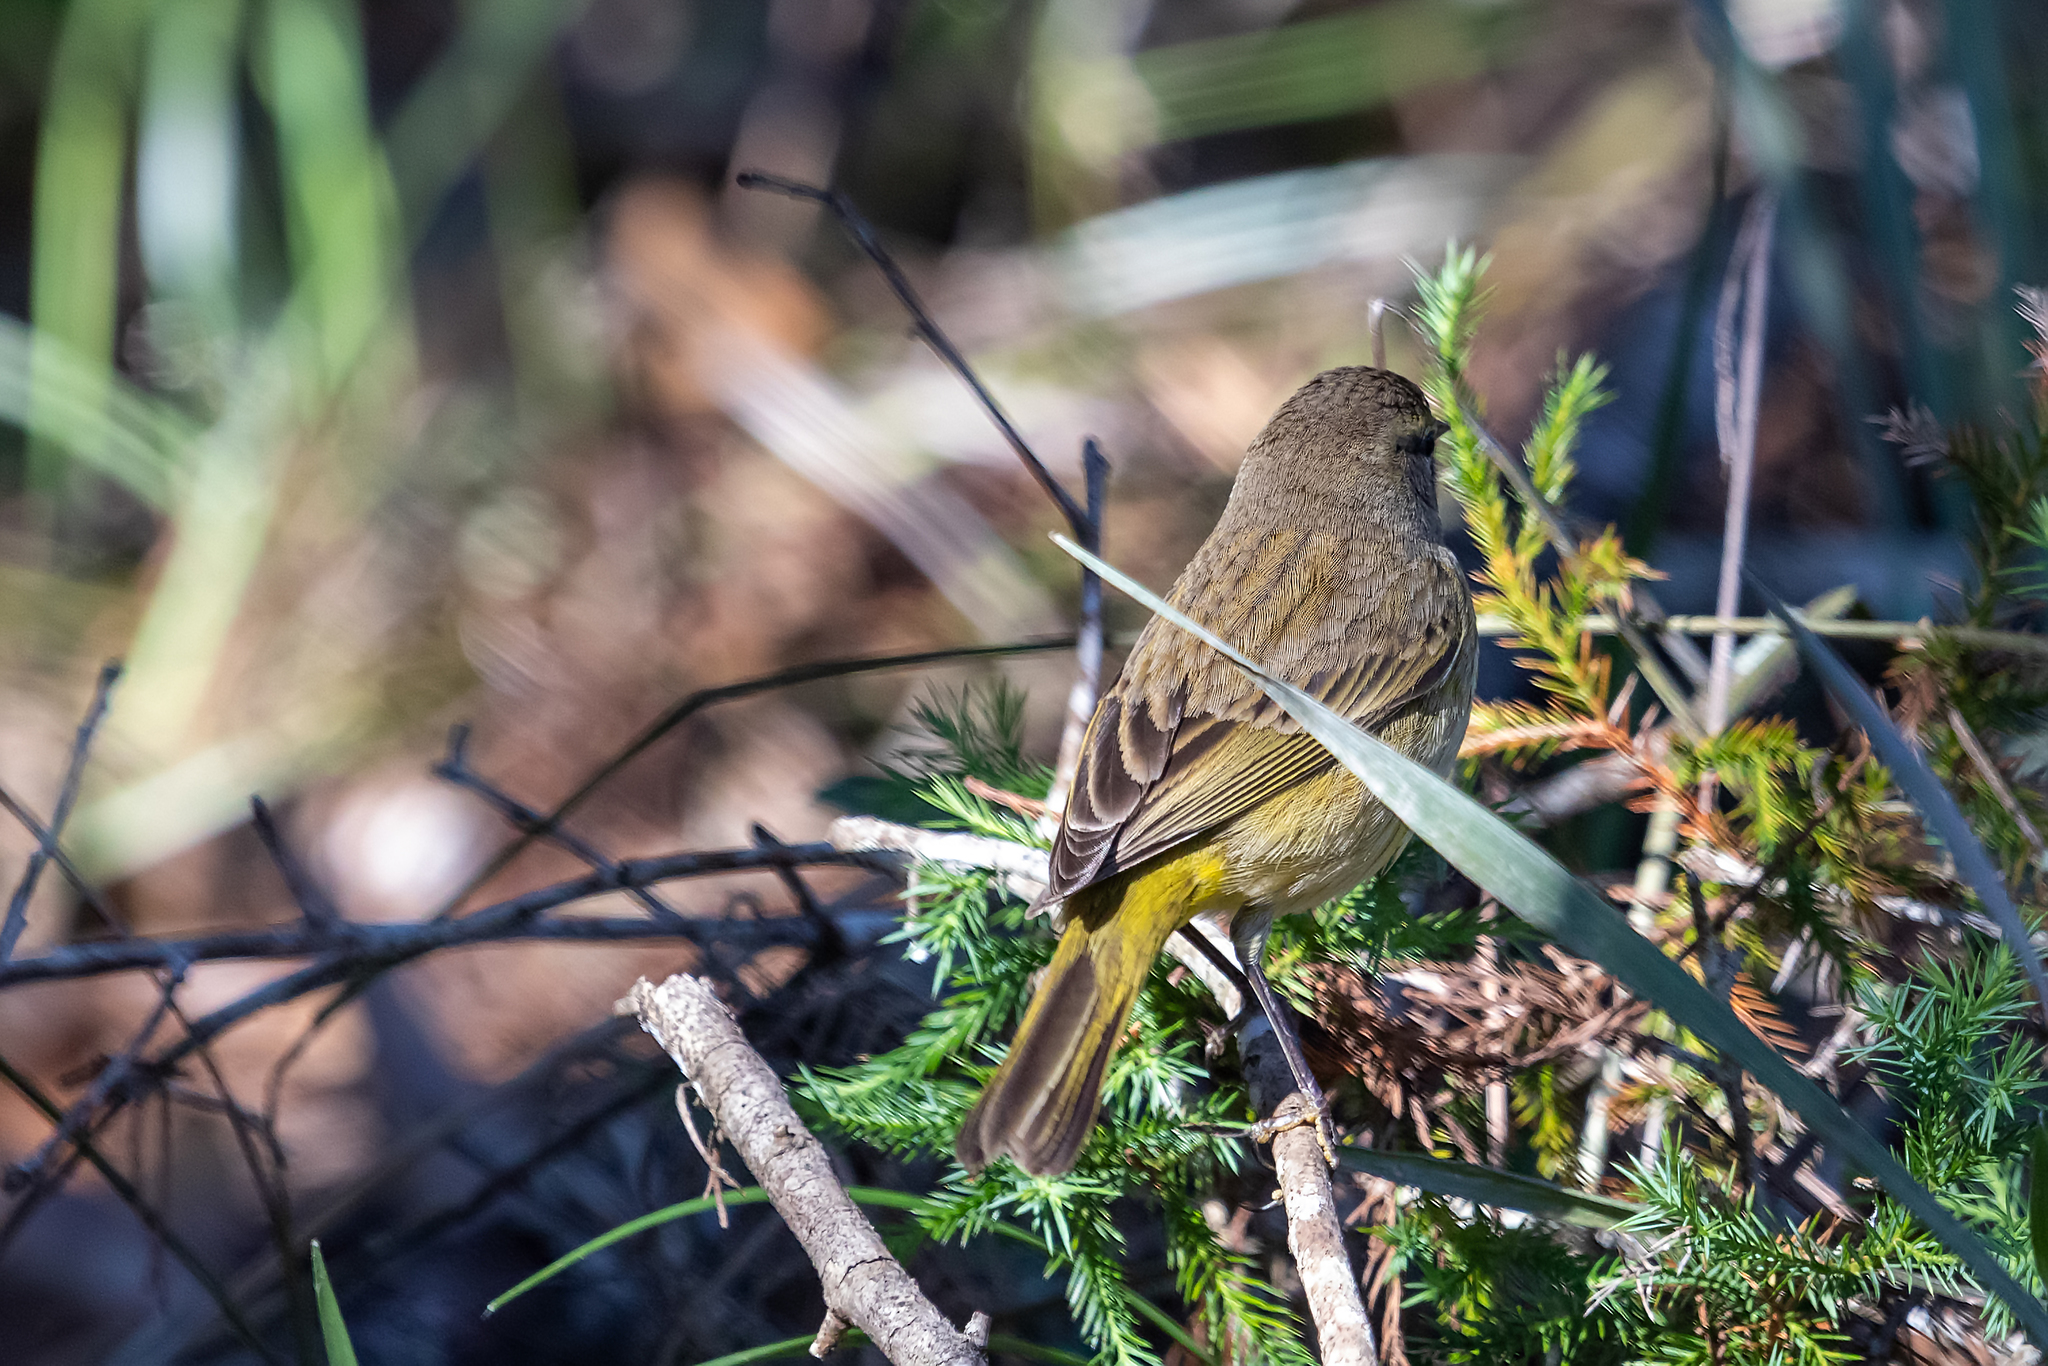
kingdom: Animalia
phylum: Chordata
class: Aves
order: Passeriformes
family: Parulidae
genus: Setophaga
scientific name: Setophaga palmarum
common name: Palm warbler
